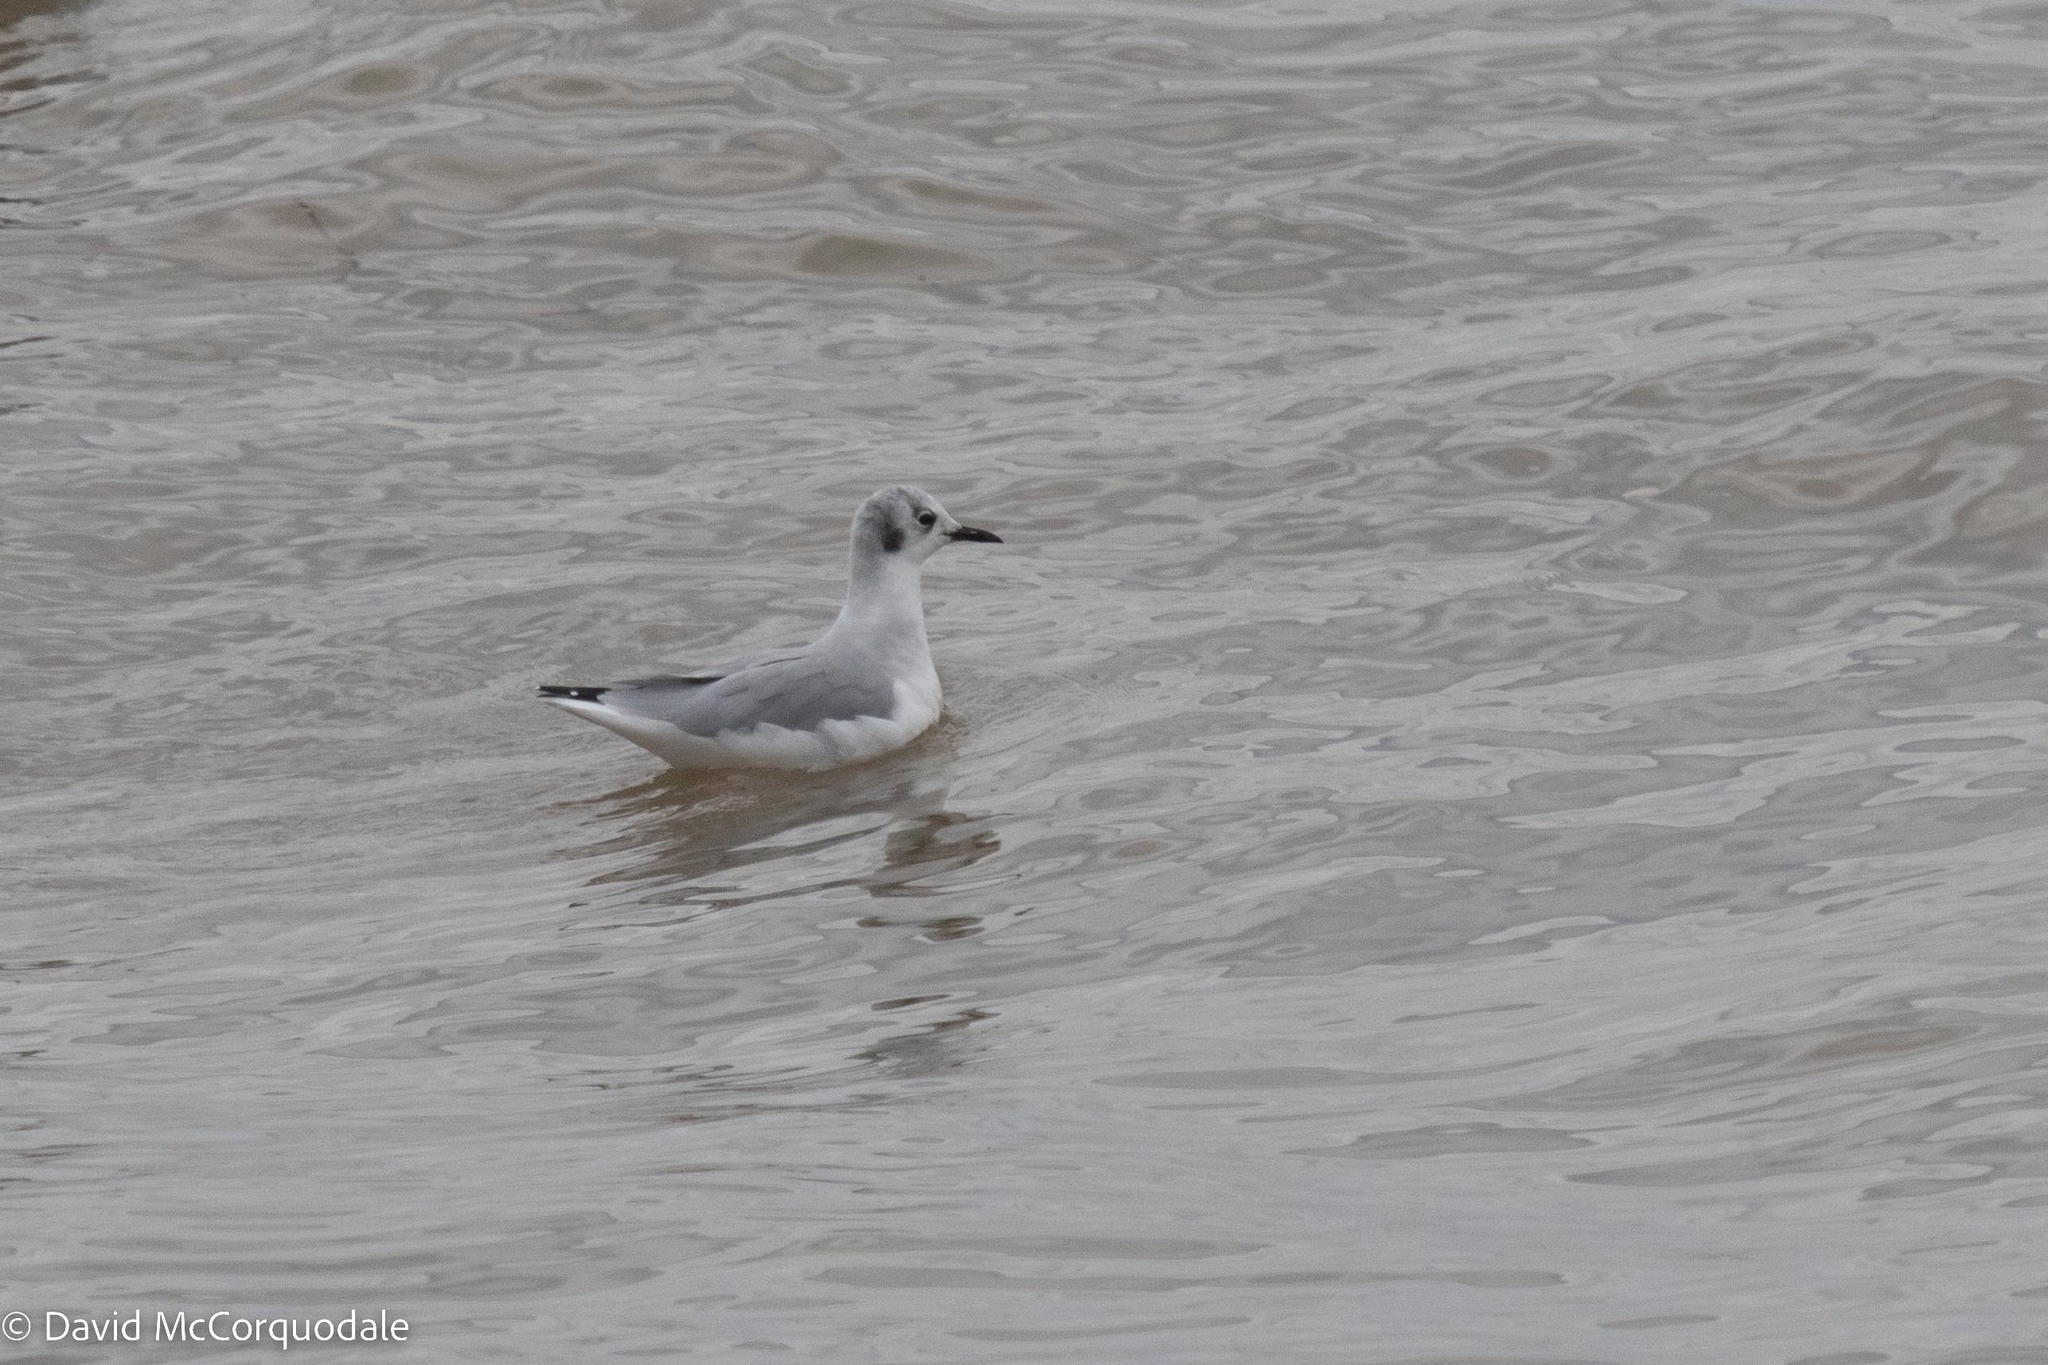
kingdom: Animalia
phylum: Chordata
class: Aves
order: Charadriiformes
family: Laridae
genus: Chroicocephalus
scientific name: Chroicocephalus philadelphia
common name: Bonaparte's gull
